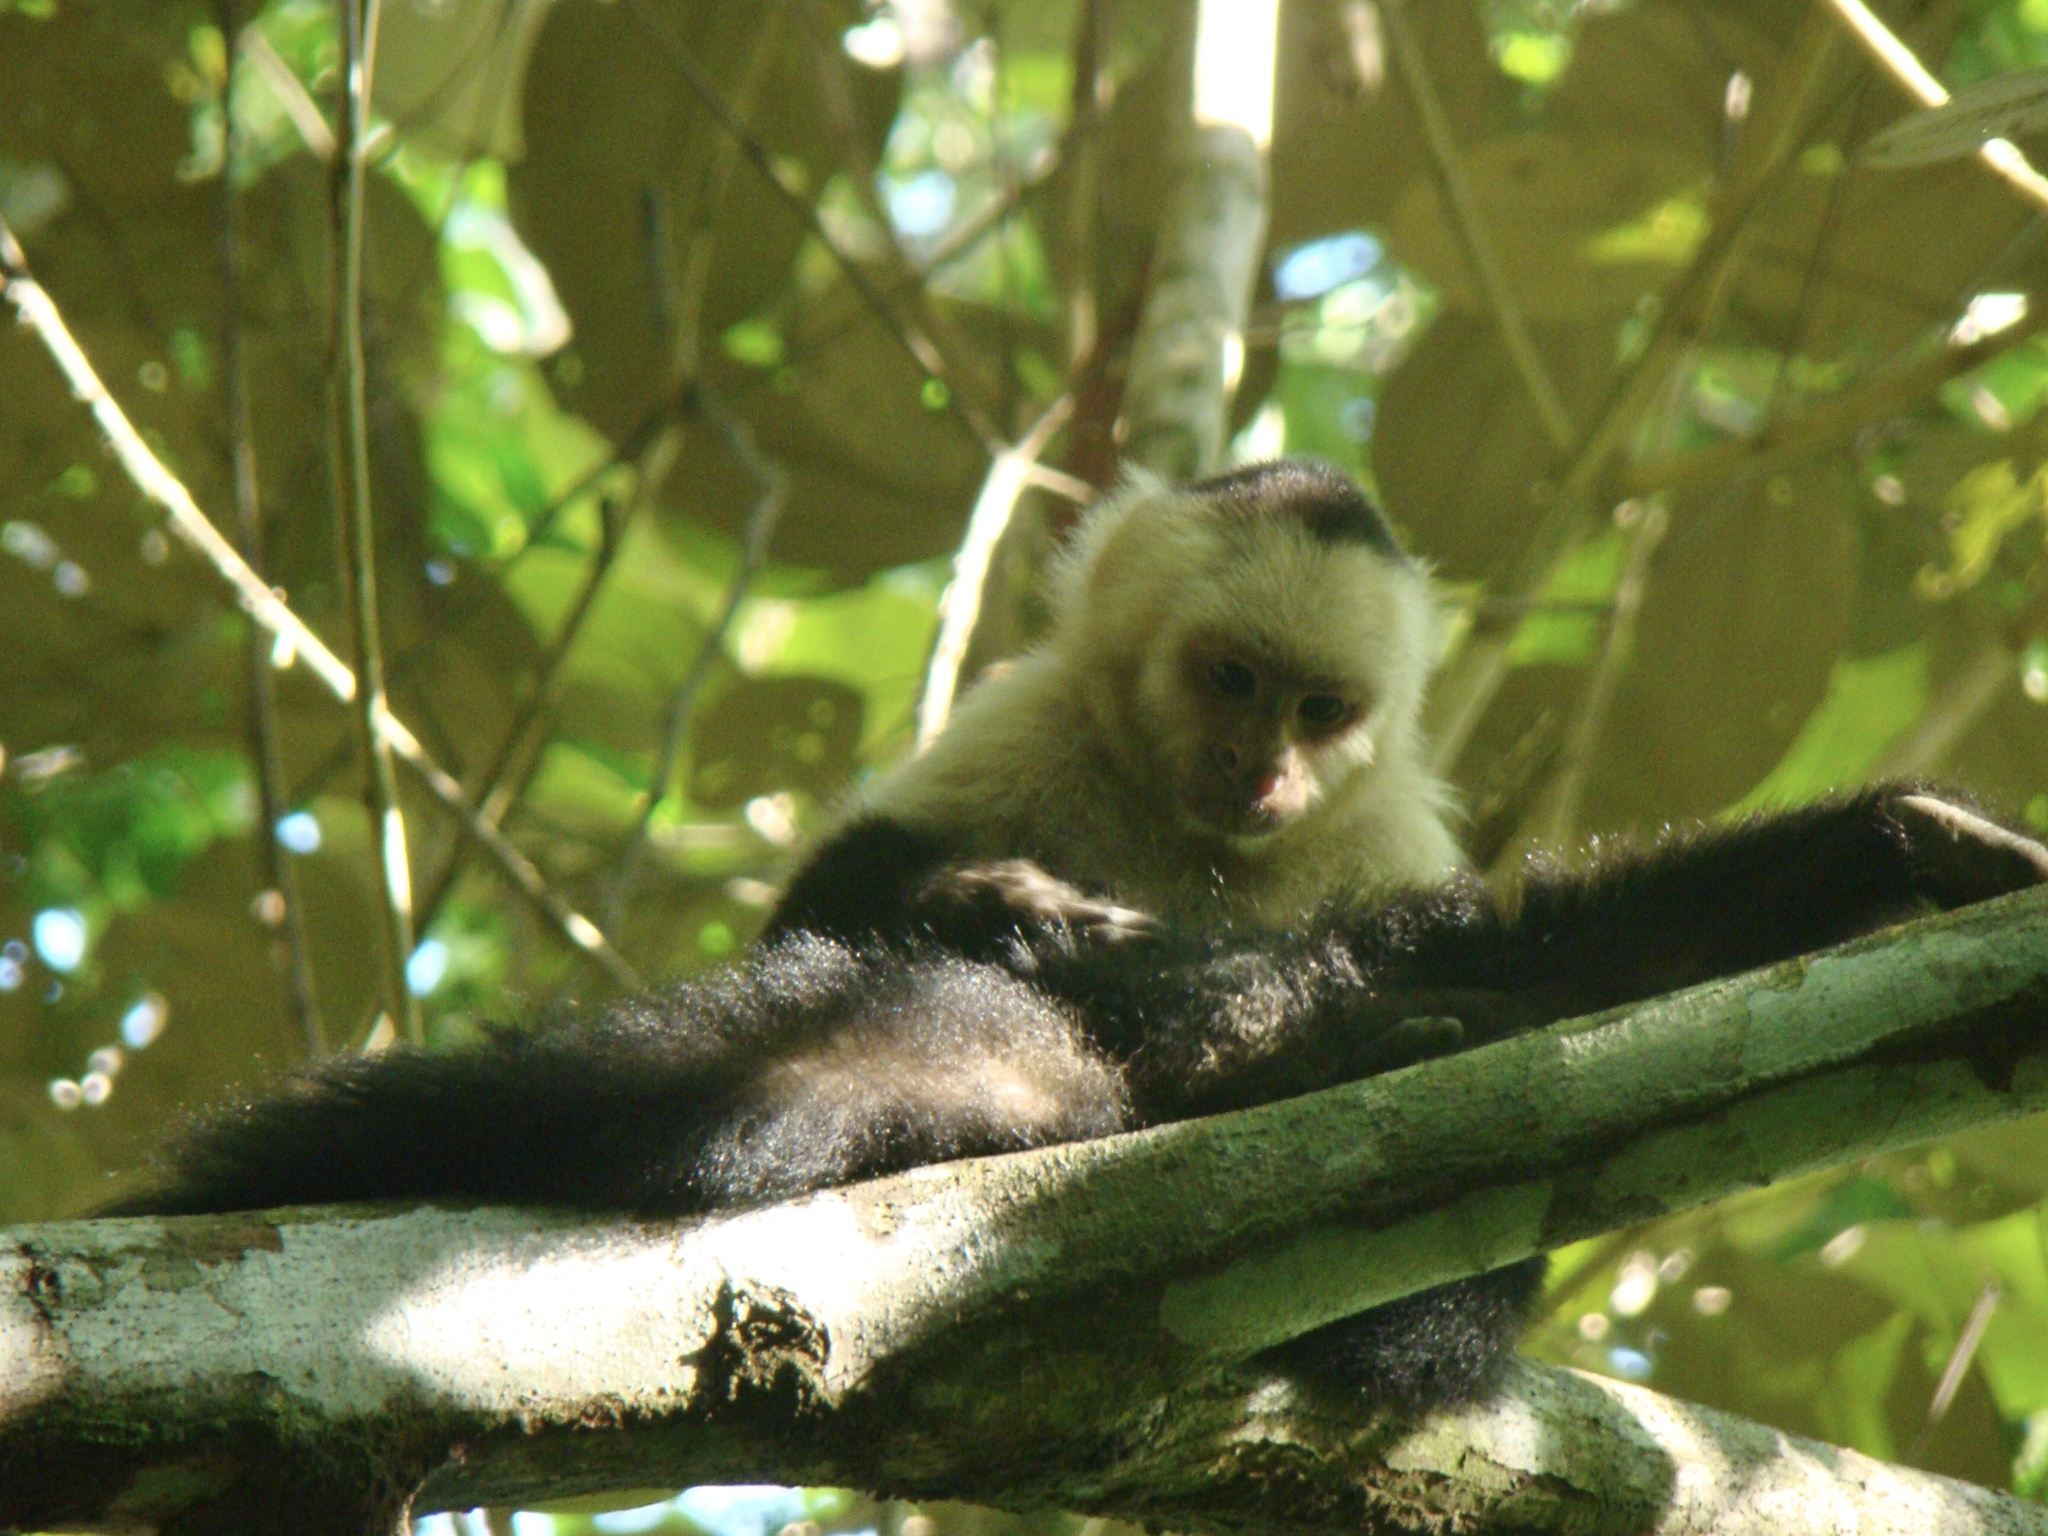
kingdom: Animalia
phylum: Chordata
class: Mammalia
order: Primates
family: Cebidae
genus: Cebus
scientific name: Cebus imitator
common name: Panamanian white-faced capuchin
